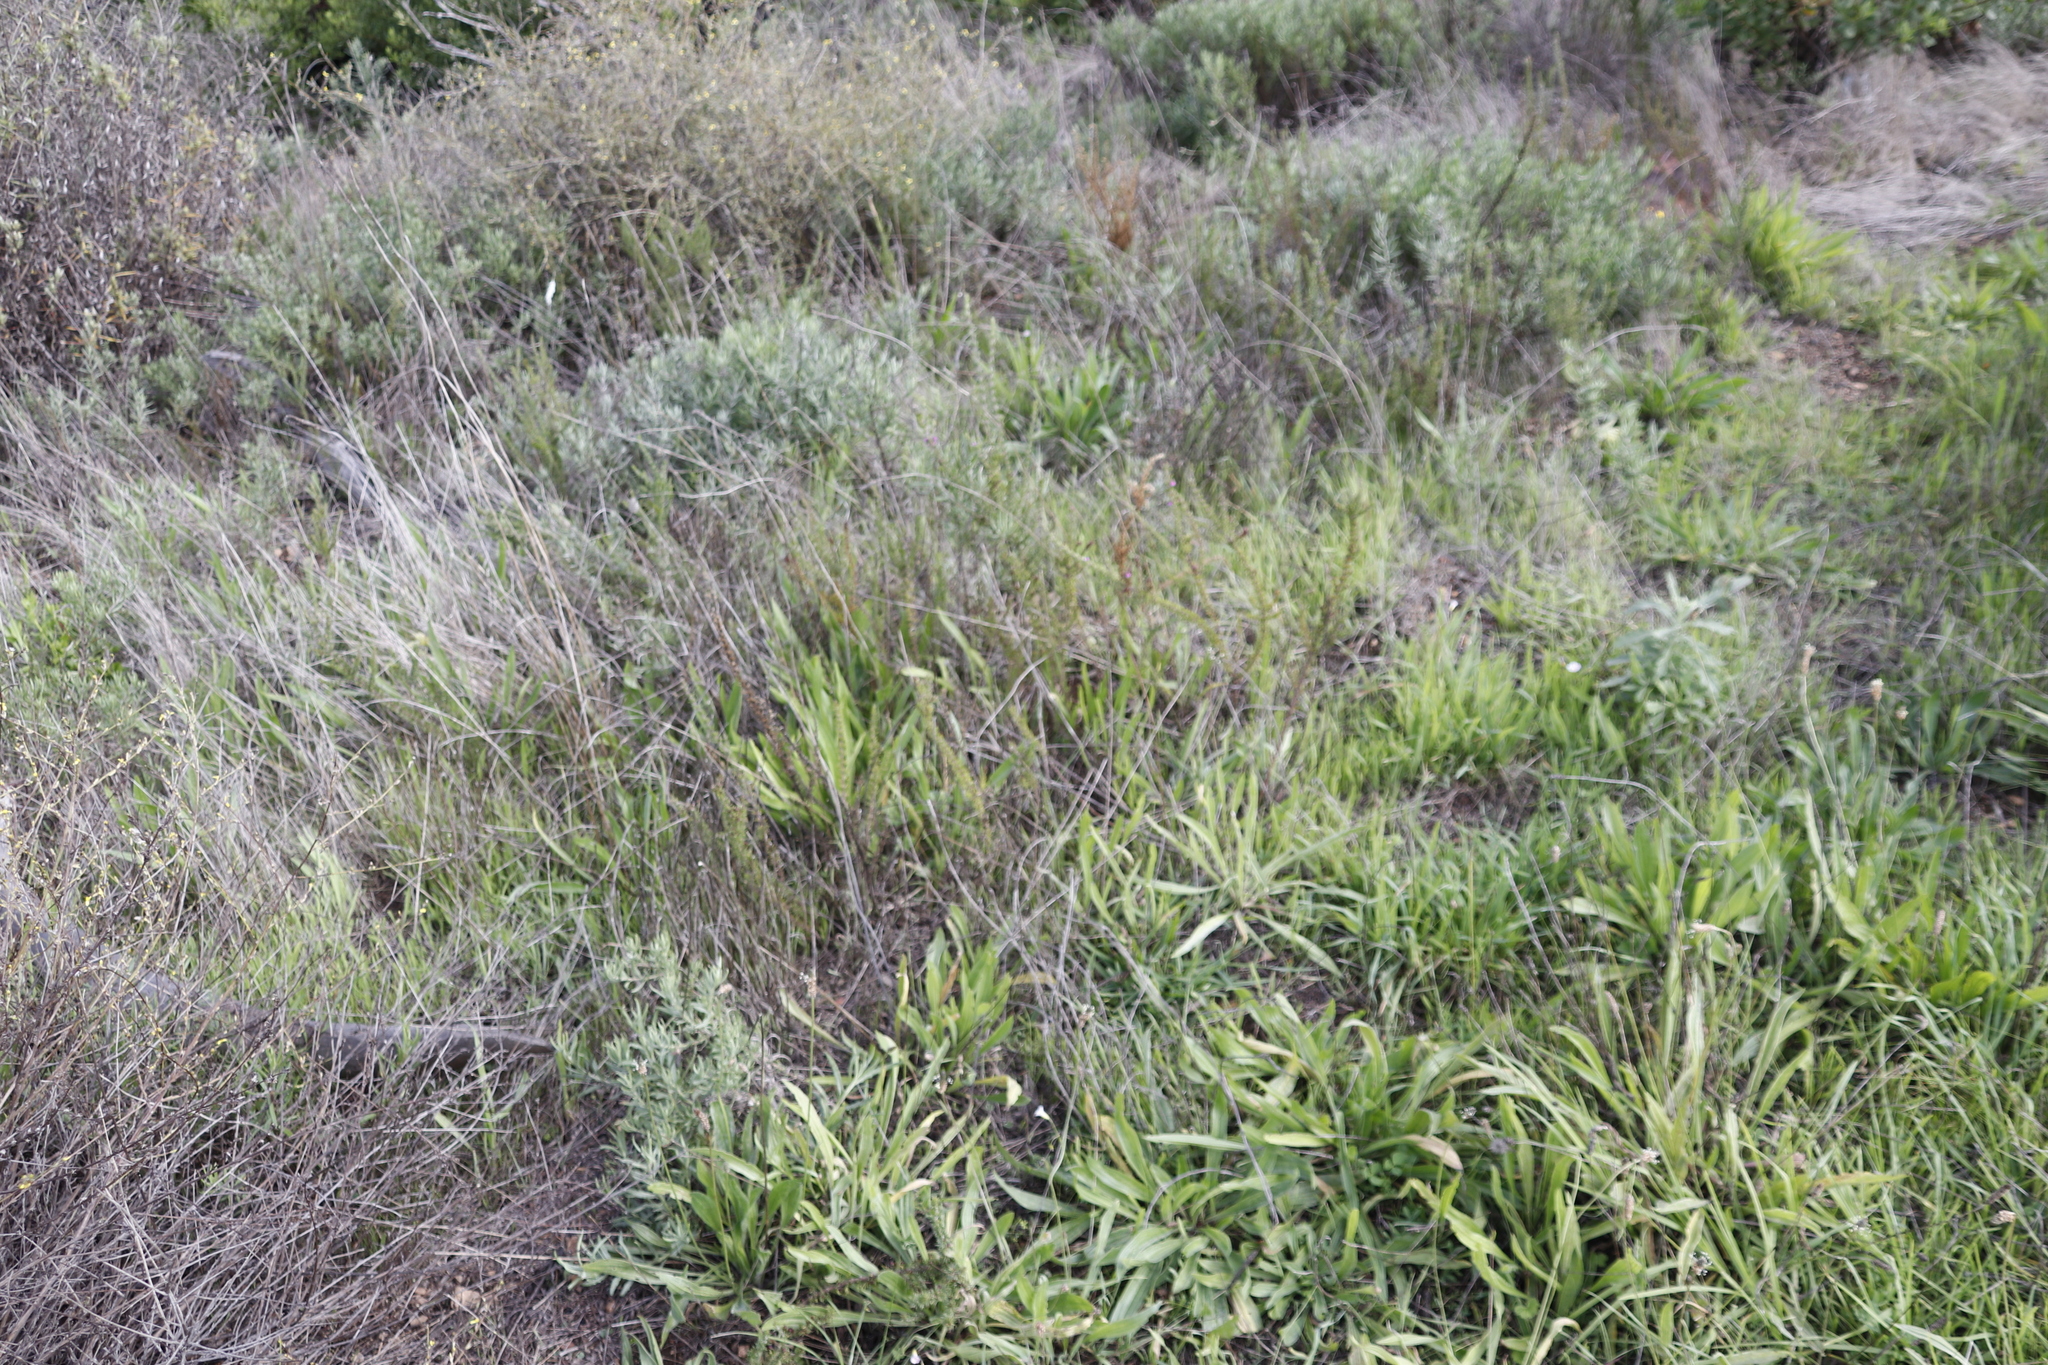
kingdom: Plantae
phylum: Tracheophyta
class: Magnoliopsida
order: Lamiales
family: Plantaginaceae
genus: Plantago
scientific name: Plantago lanceolata
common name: Ribwort plantain
